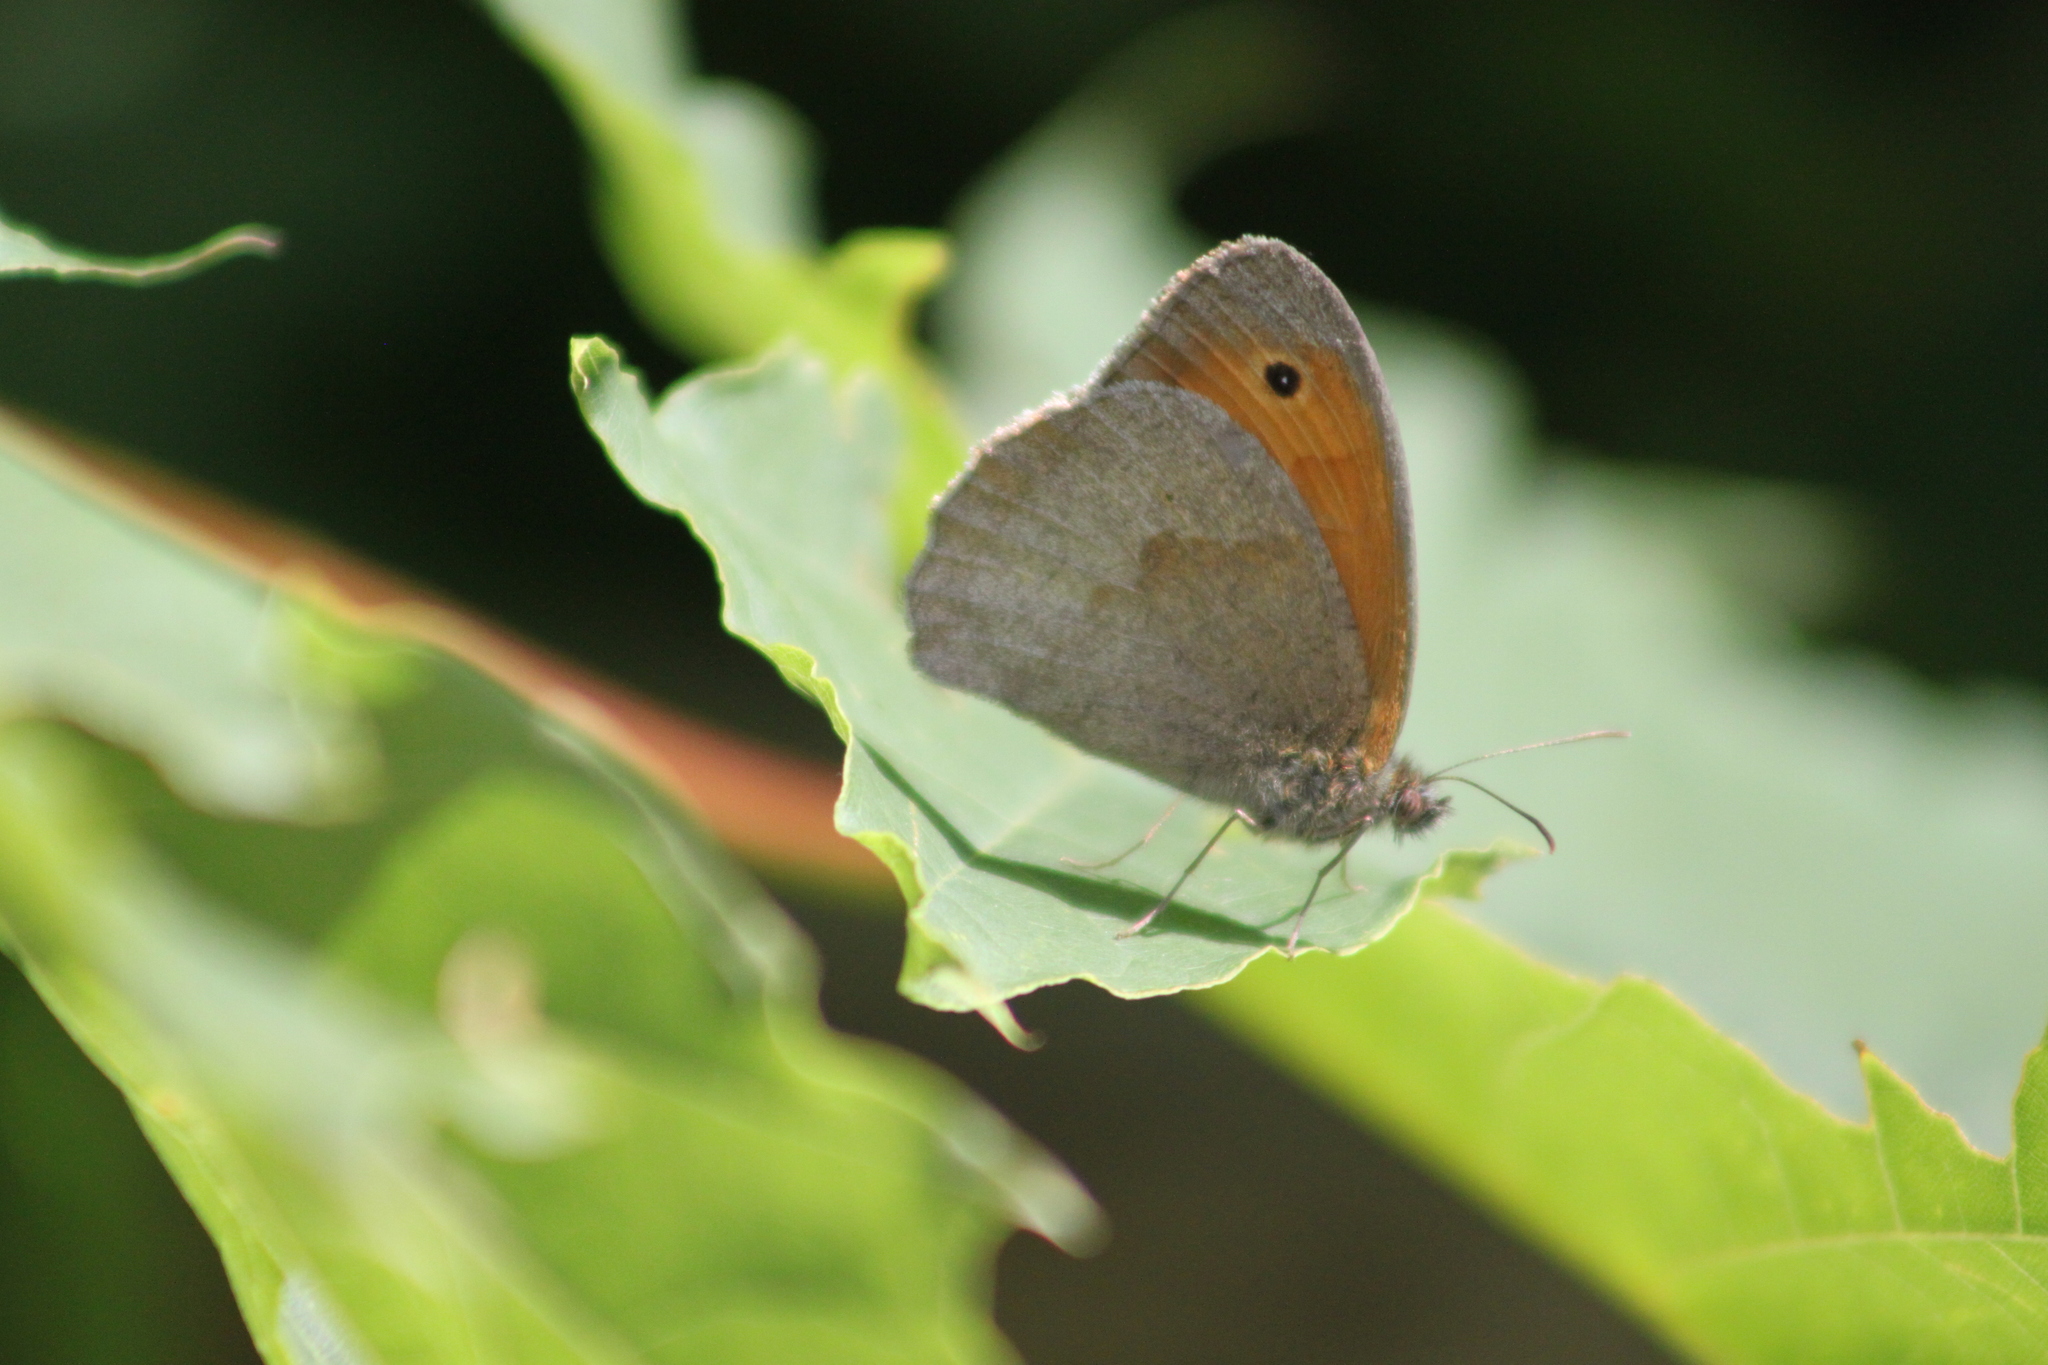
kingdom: Animalia
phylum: Arthropoda
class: Insecta
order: Lepidoptera
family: Nymphalidae
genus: Maniola
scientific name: Maniola jurtina
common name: Meadow brown
